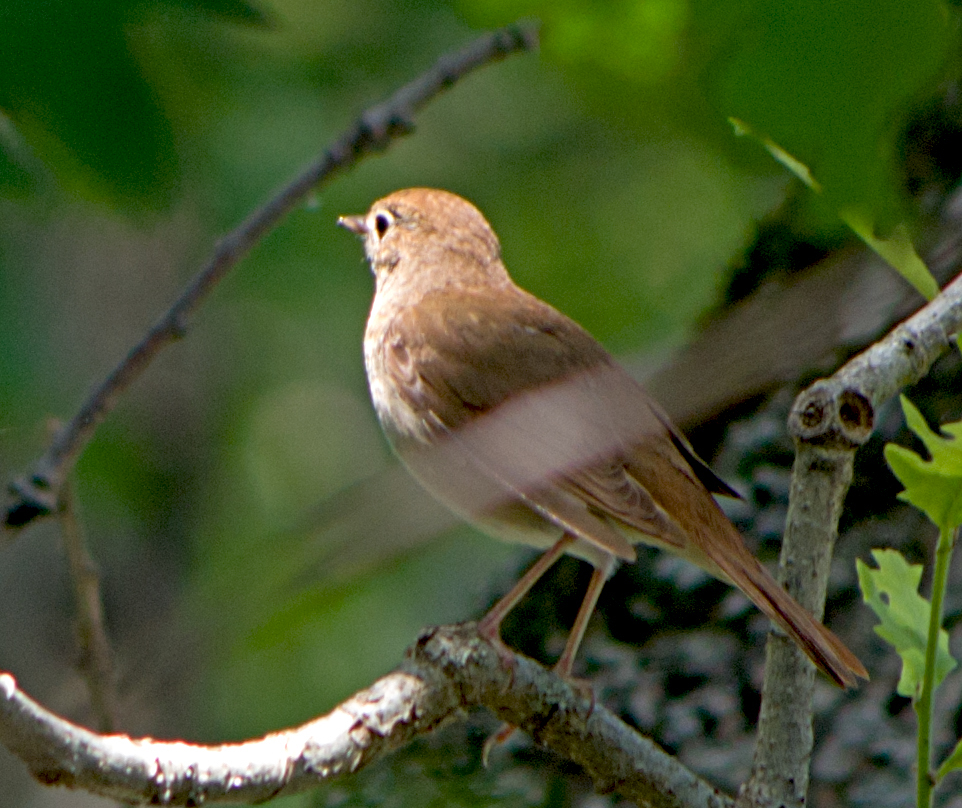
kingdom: Animalia
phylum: Chordata
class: Aves
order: Passeriformes
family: Muscicapidae
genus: Luscinia
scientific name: Luscinia megarhynchos
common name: Common nightingale
